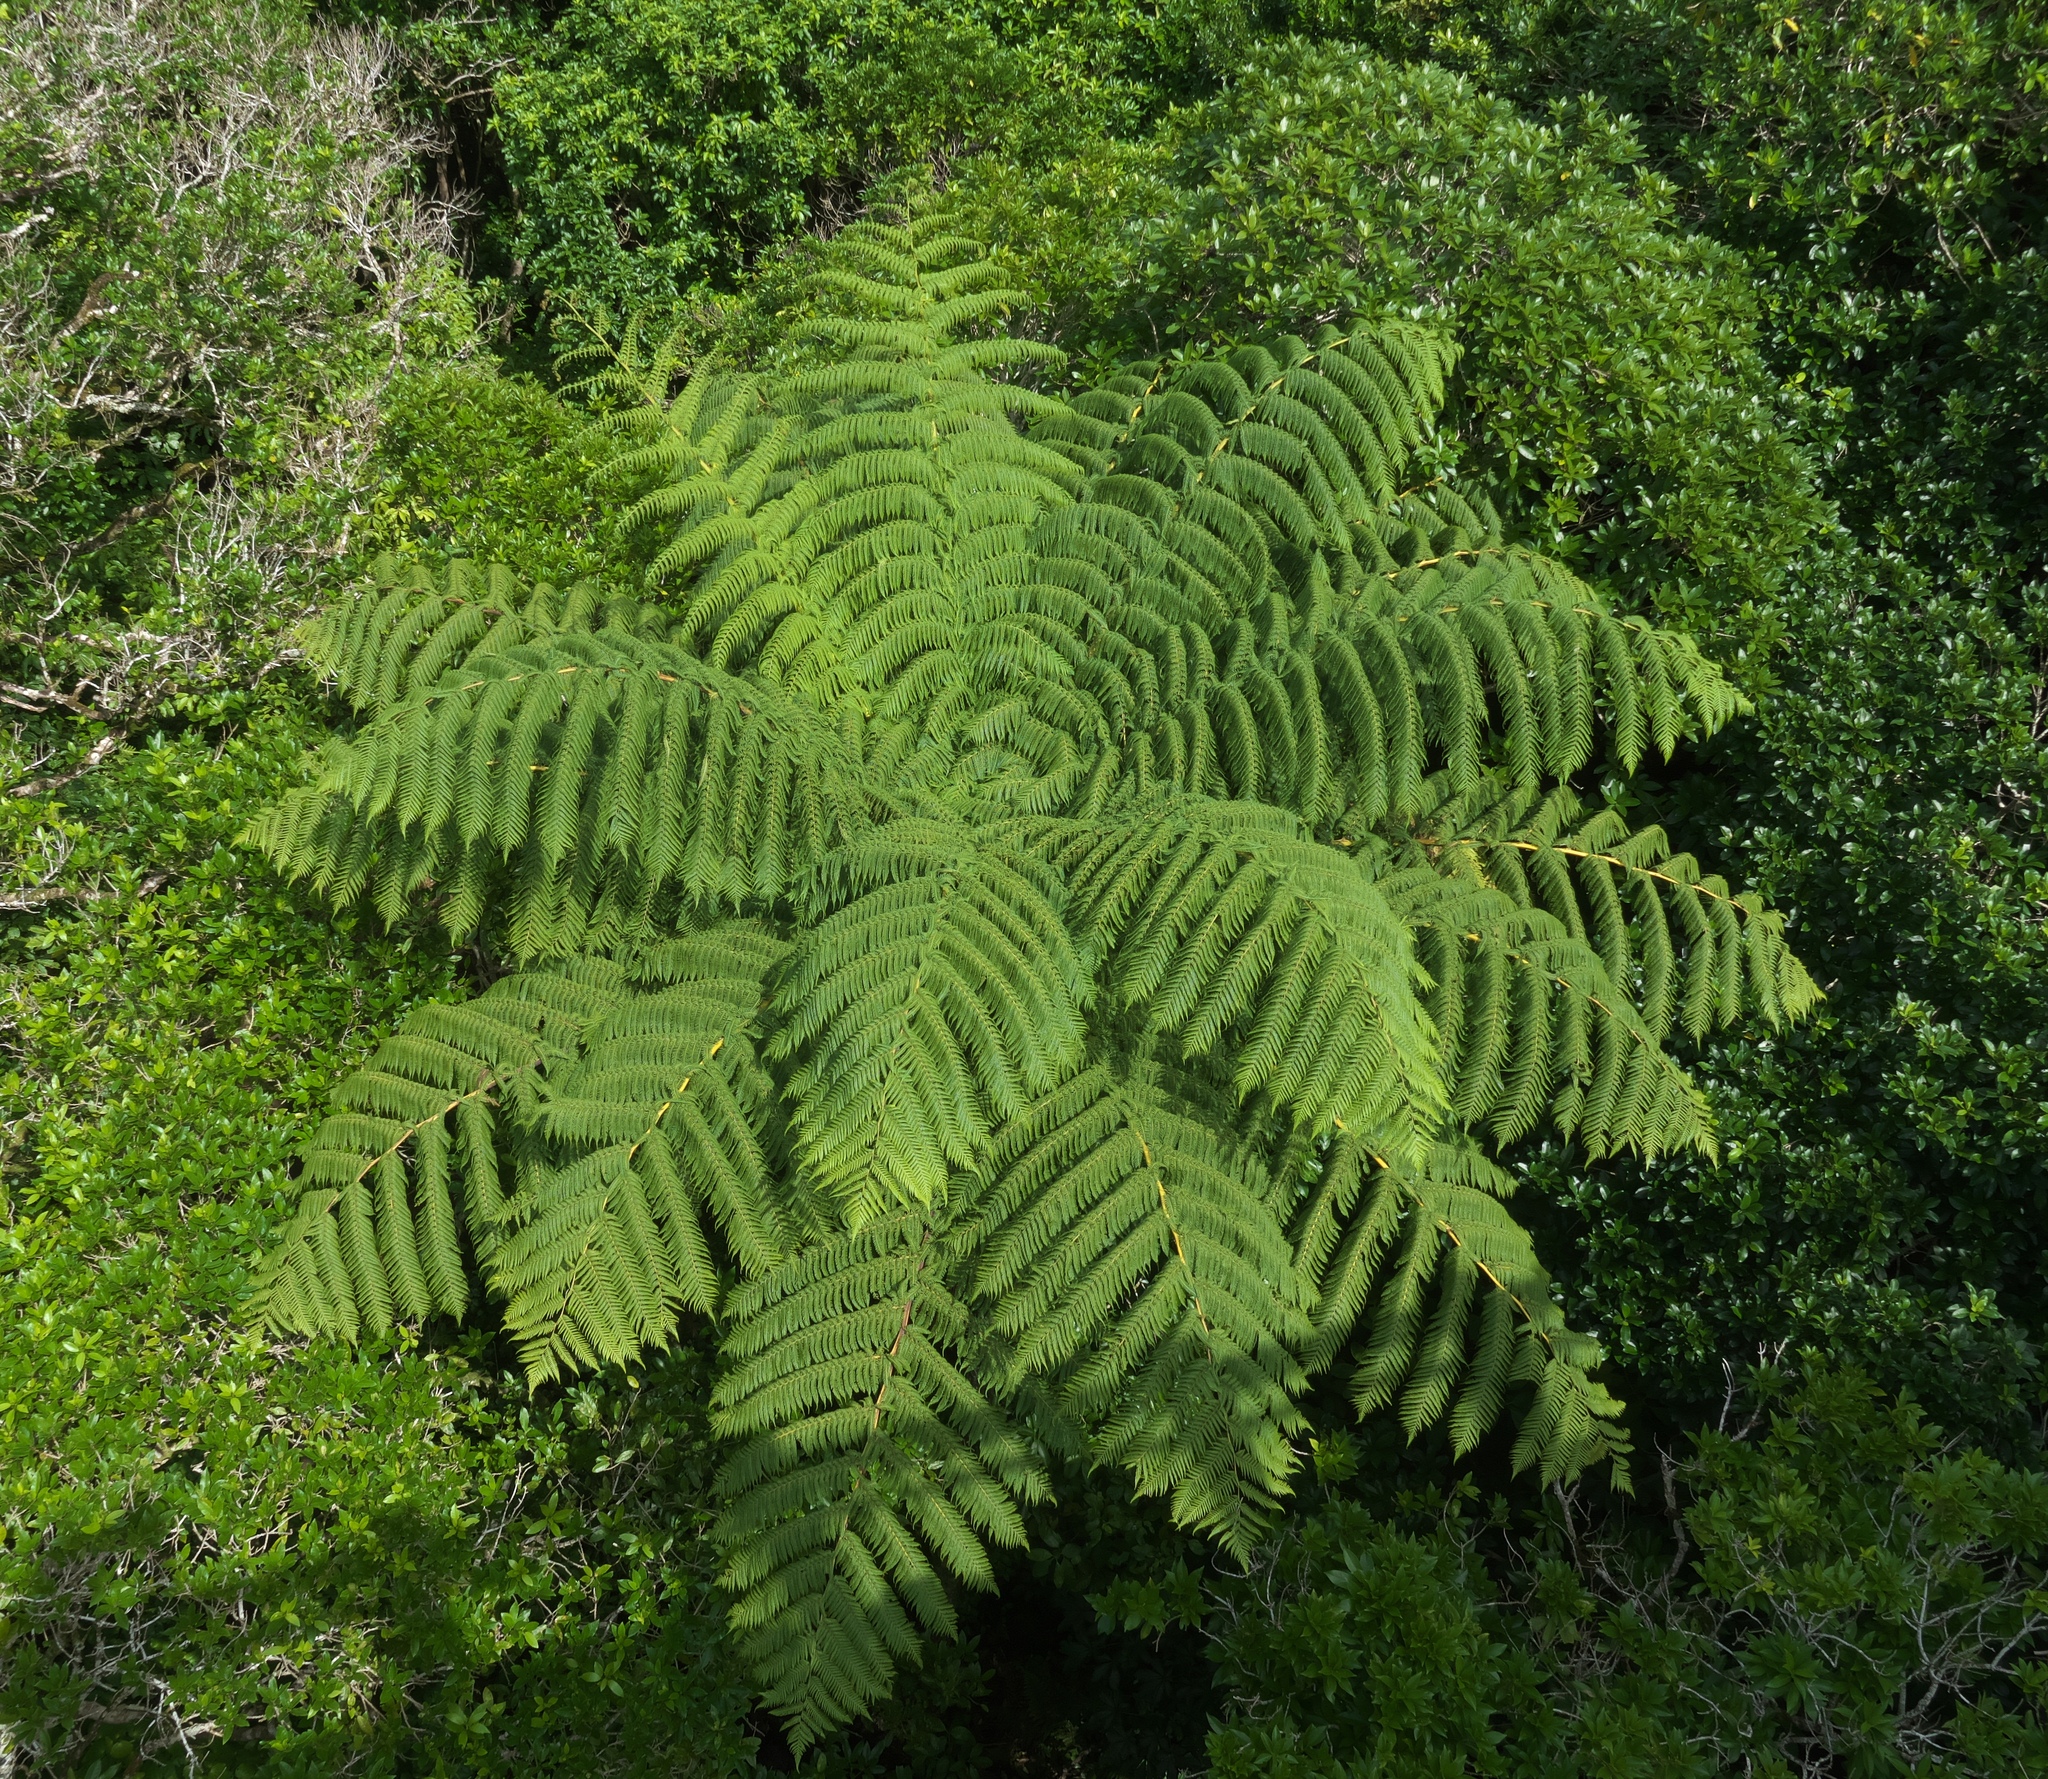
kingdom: Plantae
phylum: Tracheophyta
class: Polypodiopsida
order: Cyatheales
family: Cyatheaceae
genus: Sphaeropteris
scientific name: Sphaeropteris medullaris
